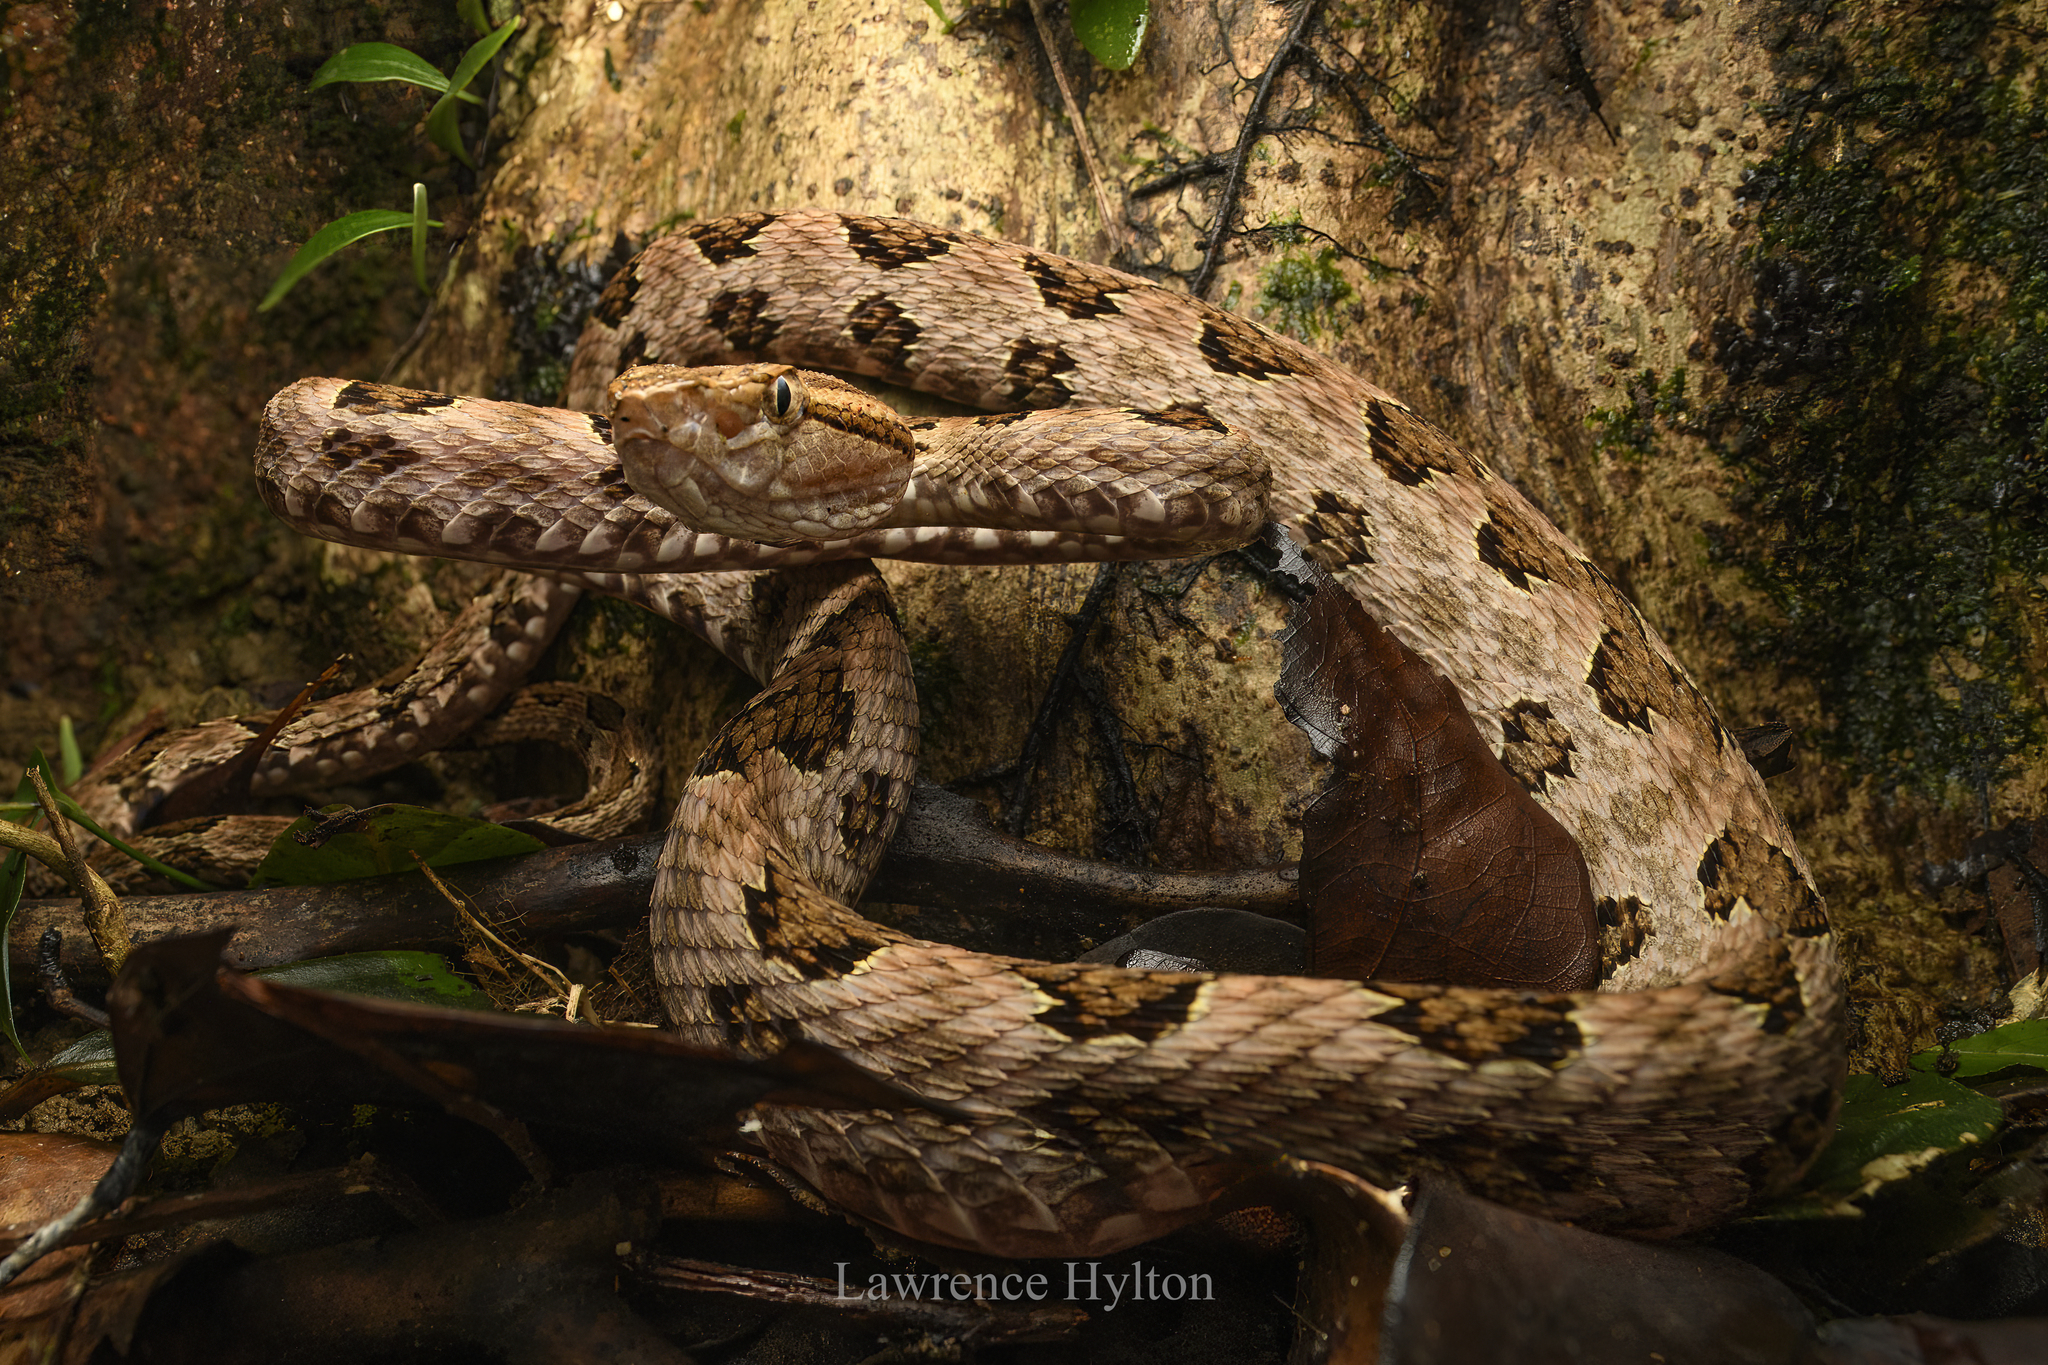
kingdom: Animalia
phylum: Chordata
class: Squamata
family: Viperidae
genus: Protobothrops
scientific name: Protobothrops mucrosquamatus
